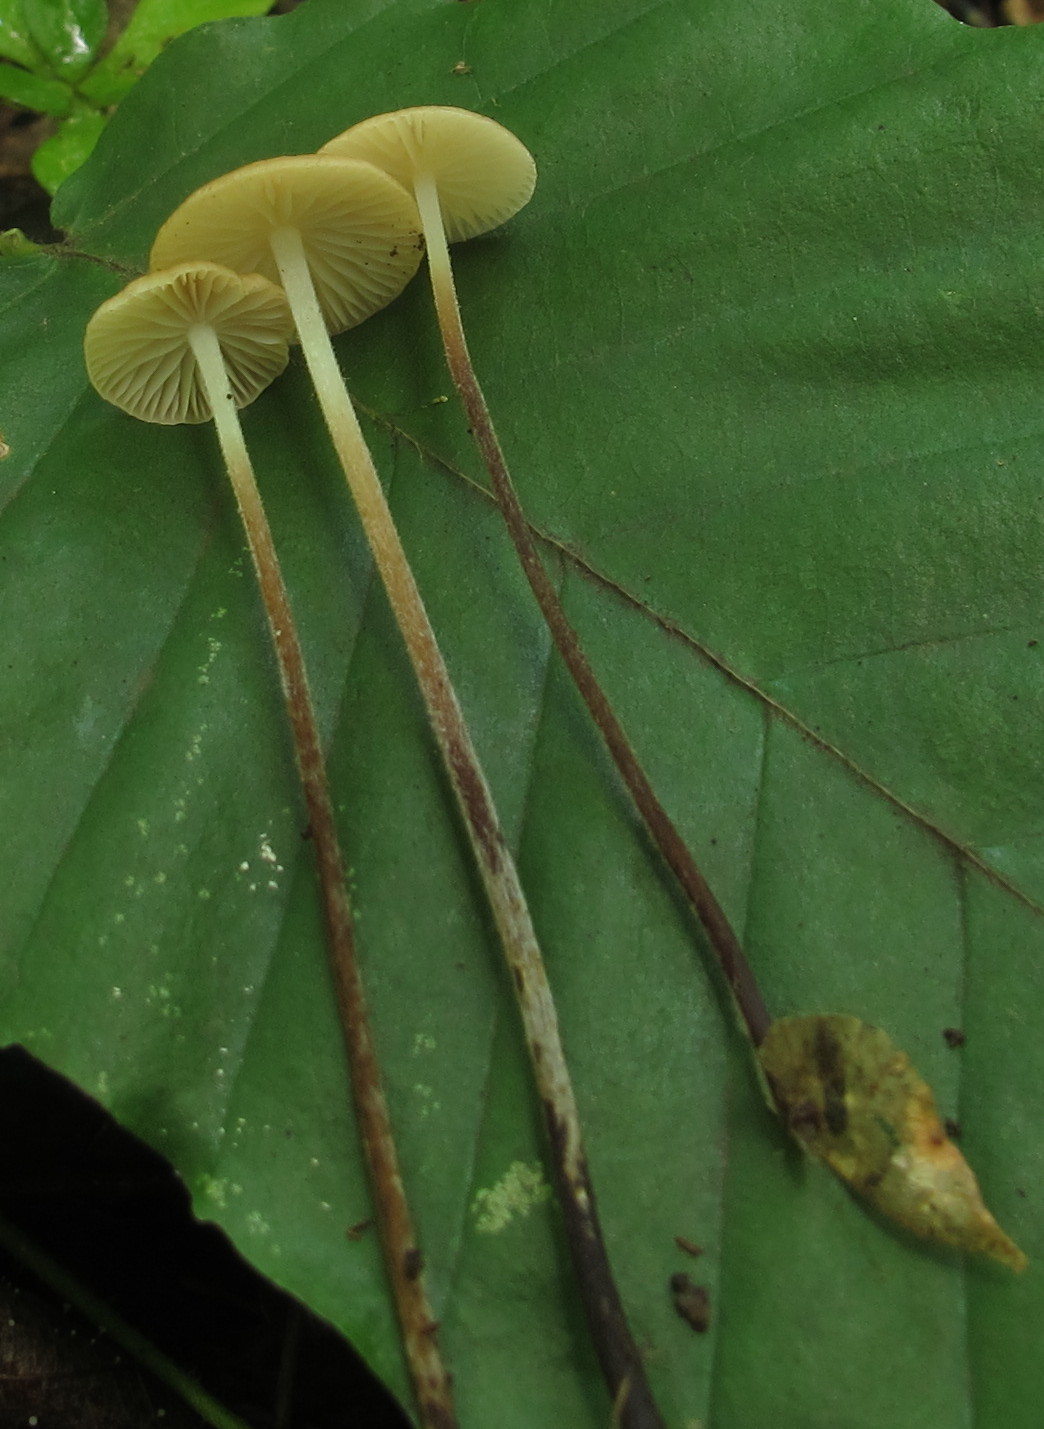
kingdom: Fungi
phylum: Basidiomycota
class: Agaricomycetes
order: Agaricales
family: Physalacriaceae
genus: Rhizomarasmius
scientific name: Rhizomarasmius pyrrhocephalus
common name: Hairy long stem marasmius
